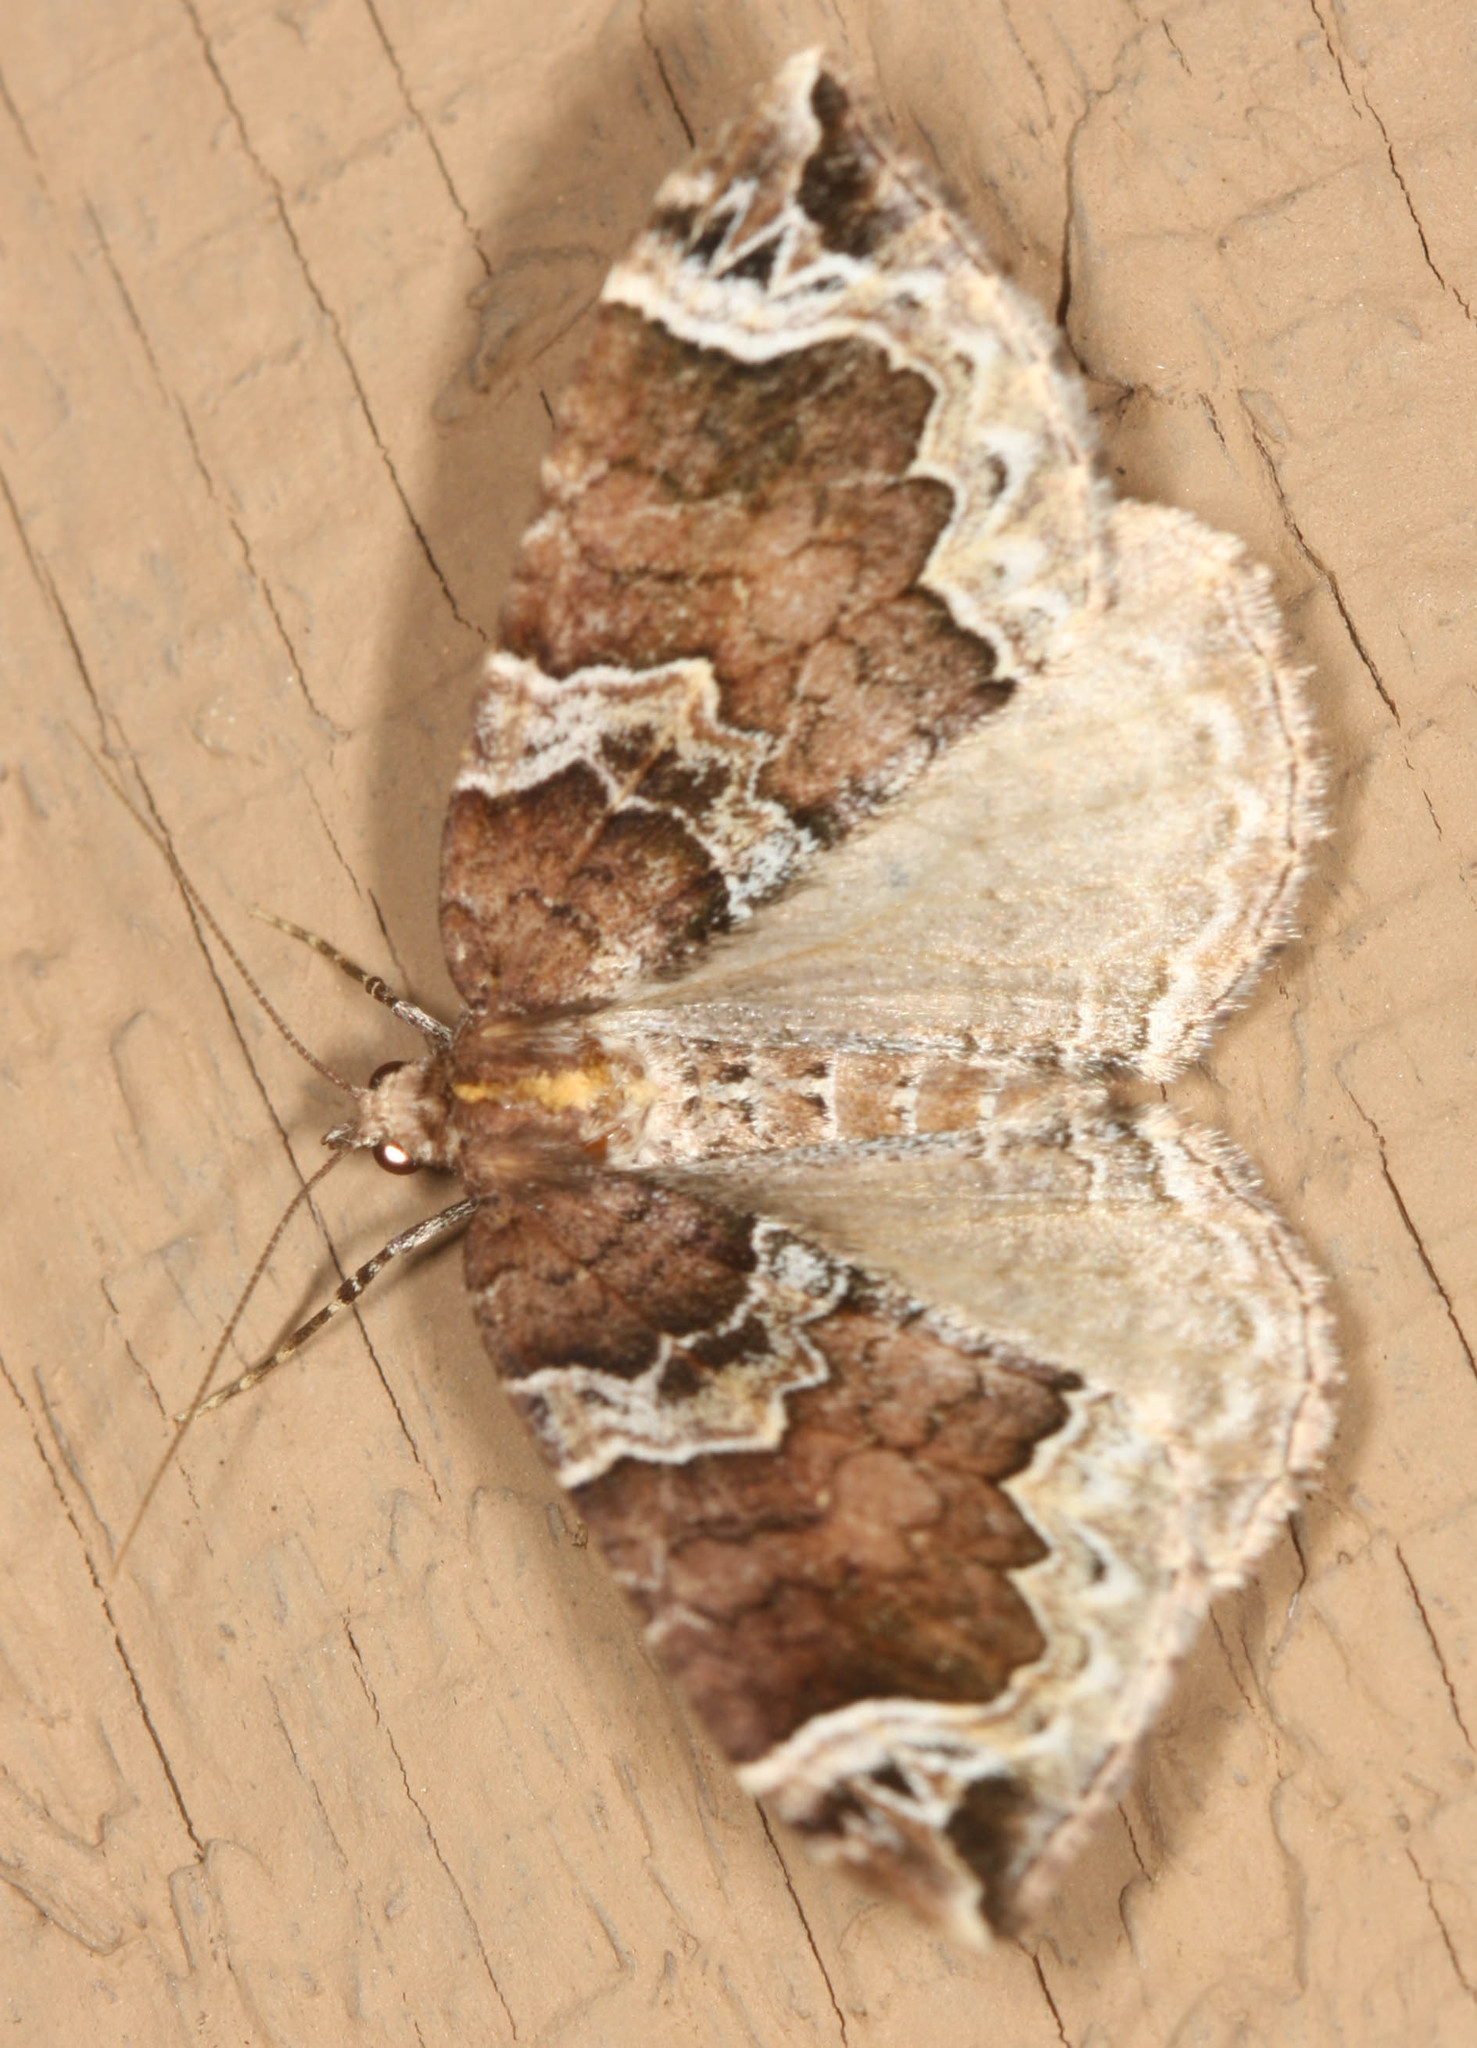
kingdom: Animalia
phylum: Arthropoda
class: Insecta
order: Lepidoptera
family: Geometridae
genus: Eulithis
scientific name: Eulithis xylina
